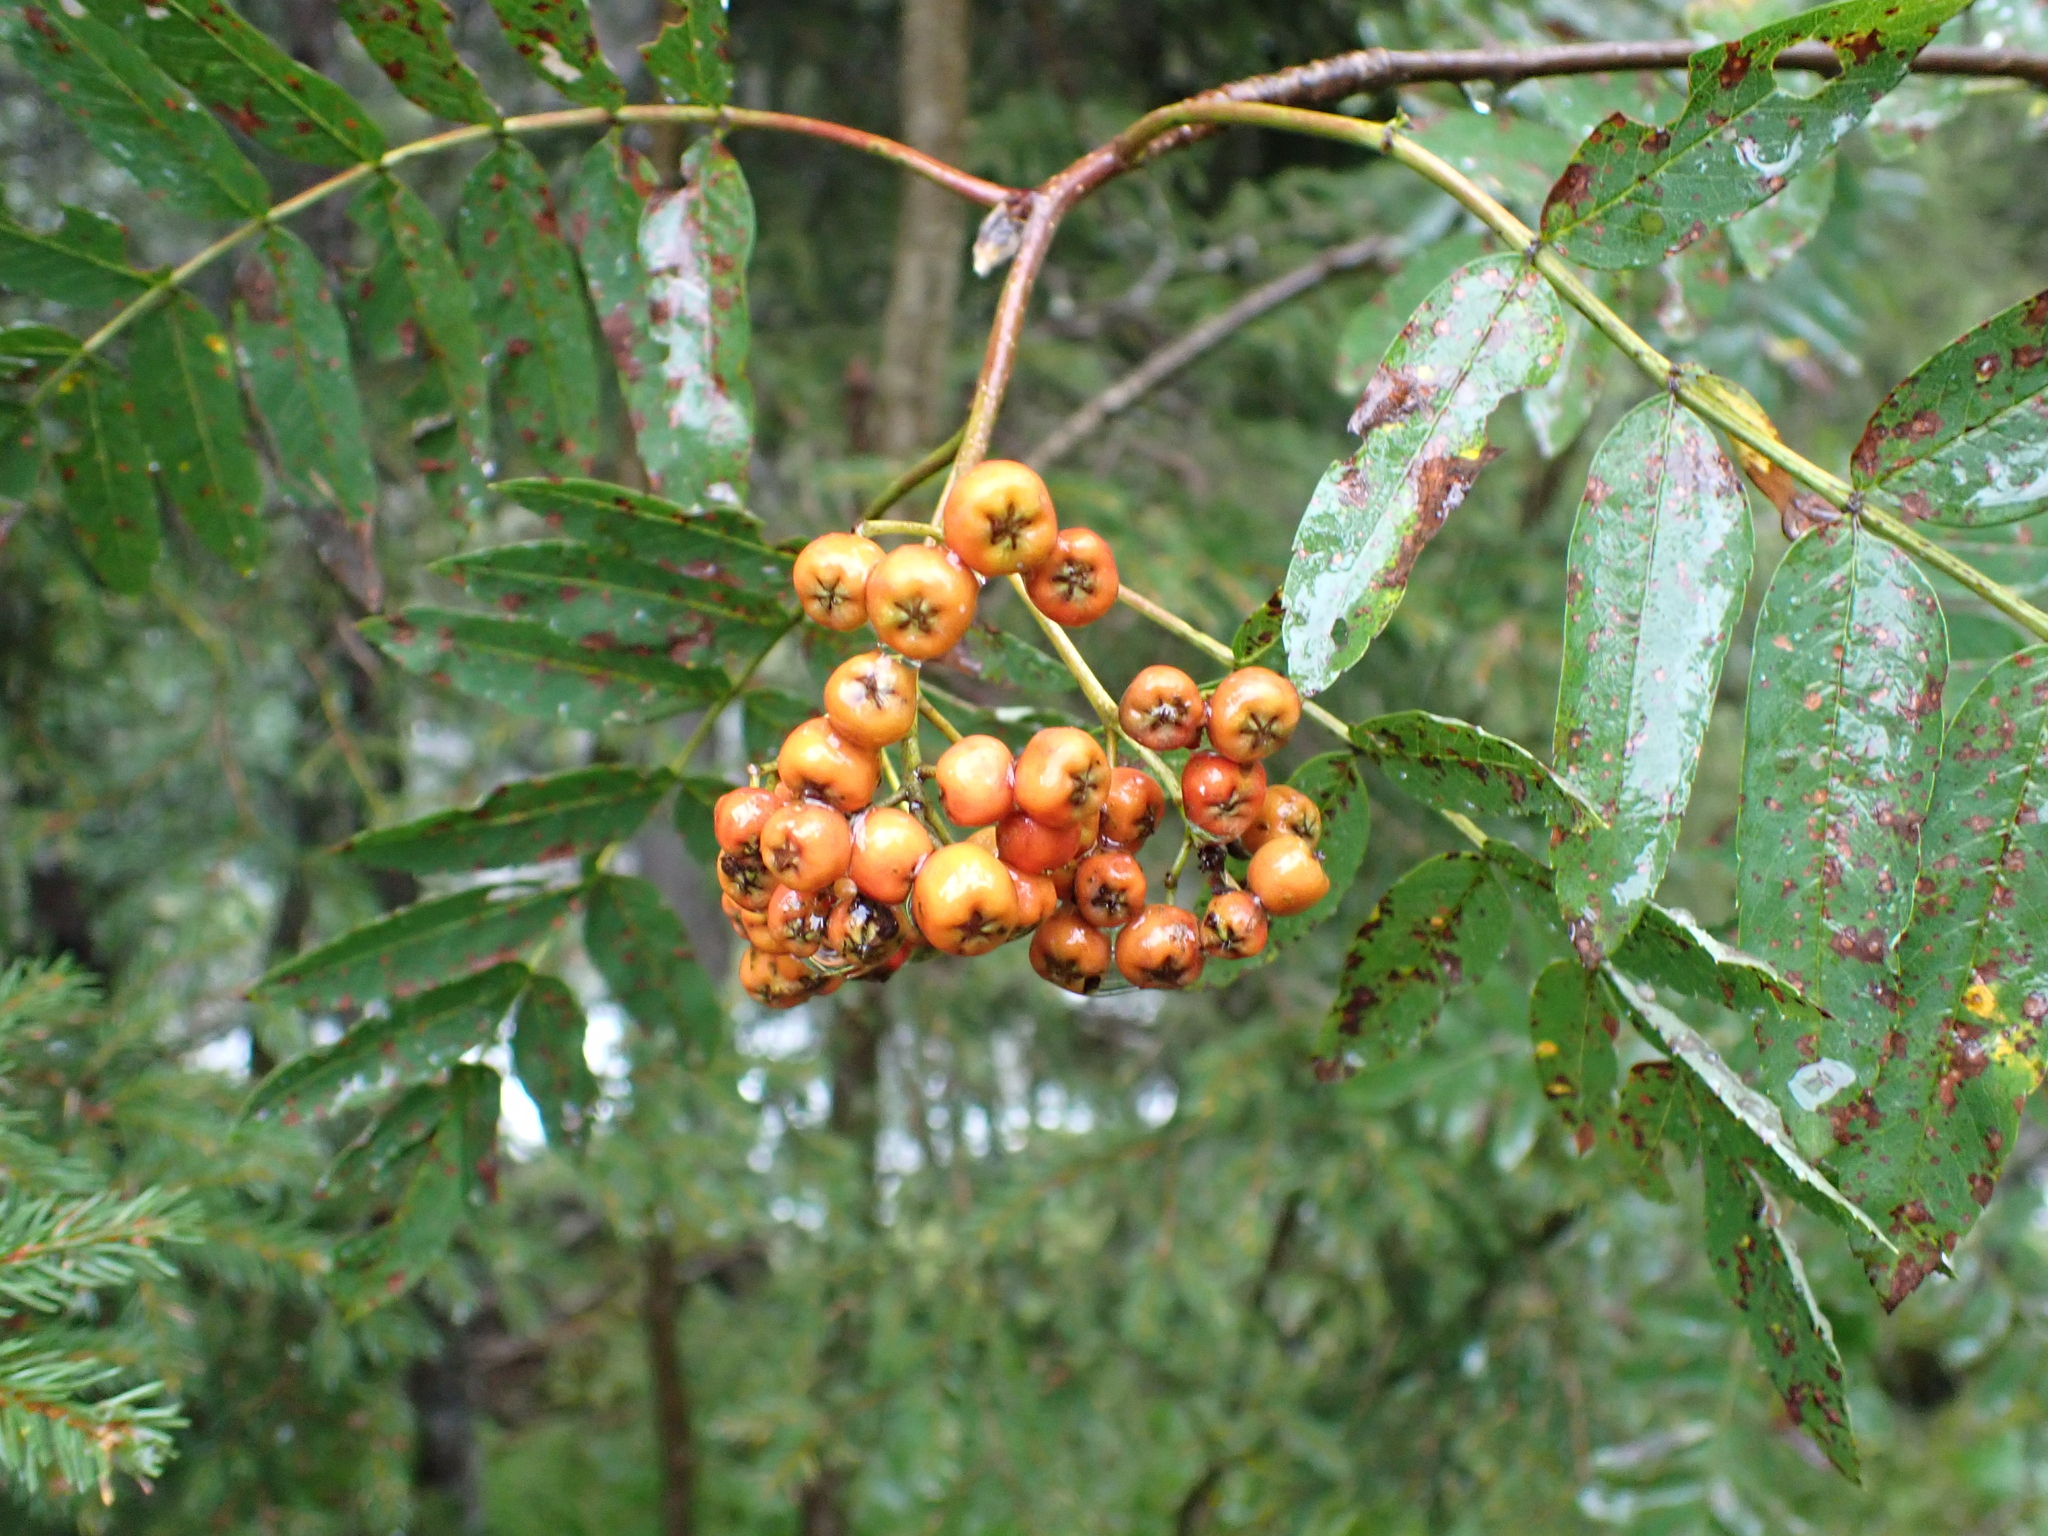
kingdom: Plantae
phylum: Tracheophyta
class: Magnoliopsida
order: Rosales
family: Rosaceae
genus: Sorbus
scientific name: Sorbus aucuparia
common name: Rowan
